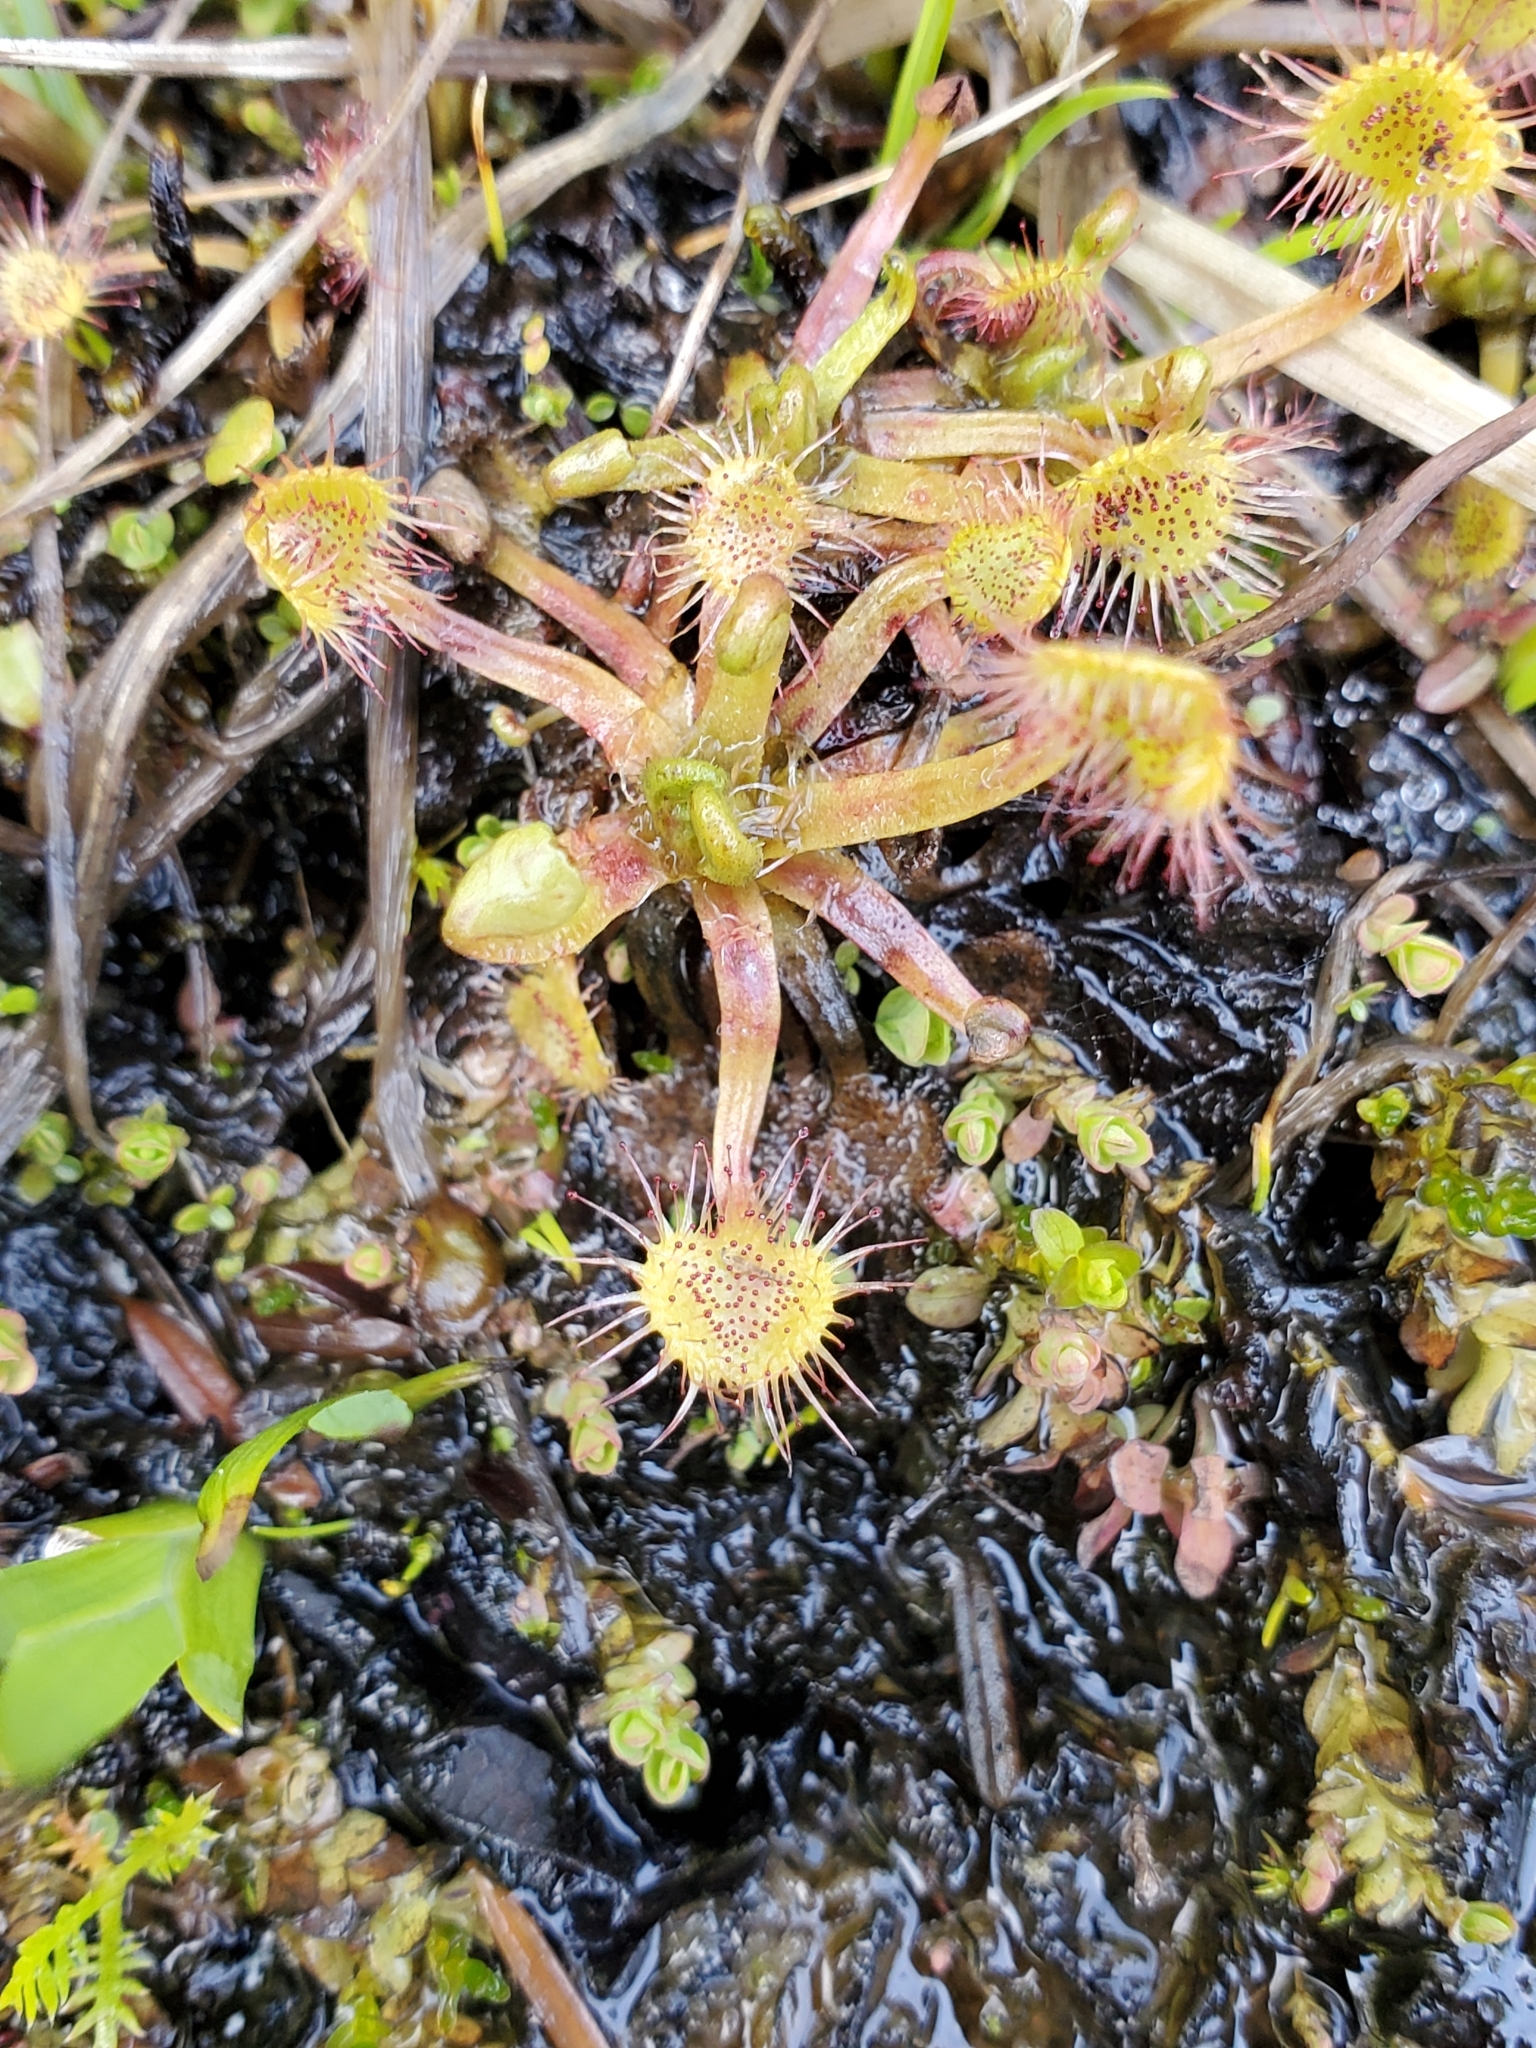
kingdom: Plantae
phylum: Tracheophyta
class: Magnoliopsida
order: Caryophyllales
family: Droseraceae
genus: Drosera
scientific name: Drosera rotundifolia
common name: Round-leaved sundew
